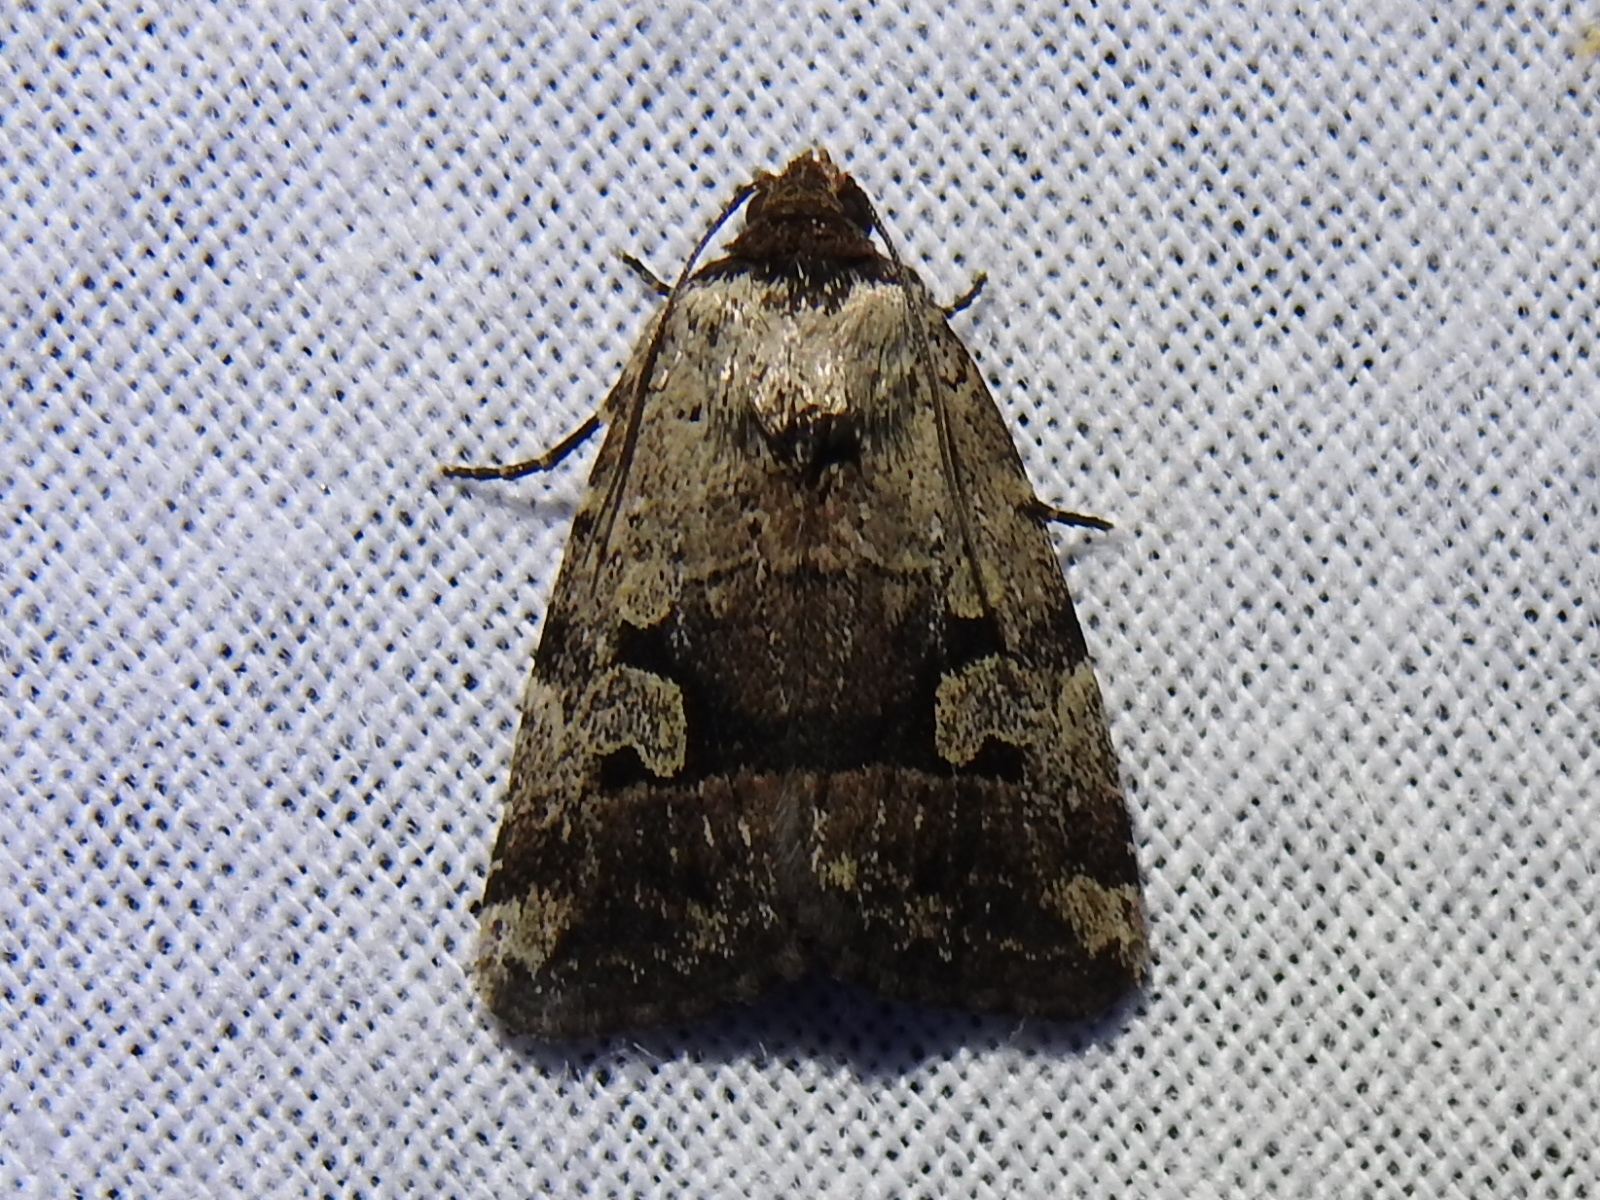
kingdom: Animalia
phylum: Arthropoda
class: Insecta
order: Lepidoptera
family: Noctuidae
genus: Elaphria
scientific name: Elaphria festivoides
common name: Festive midget
